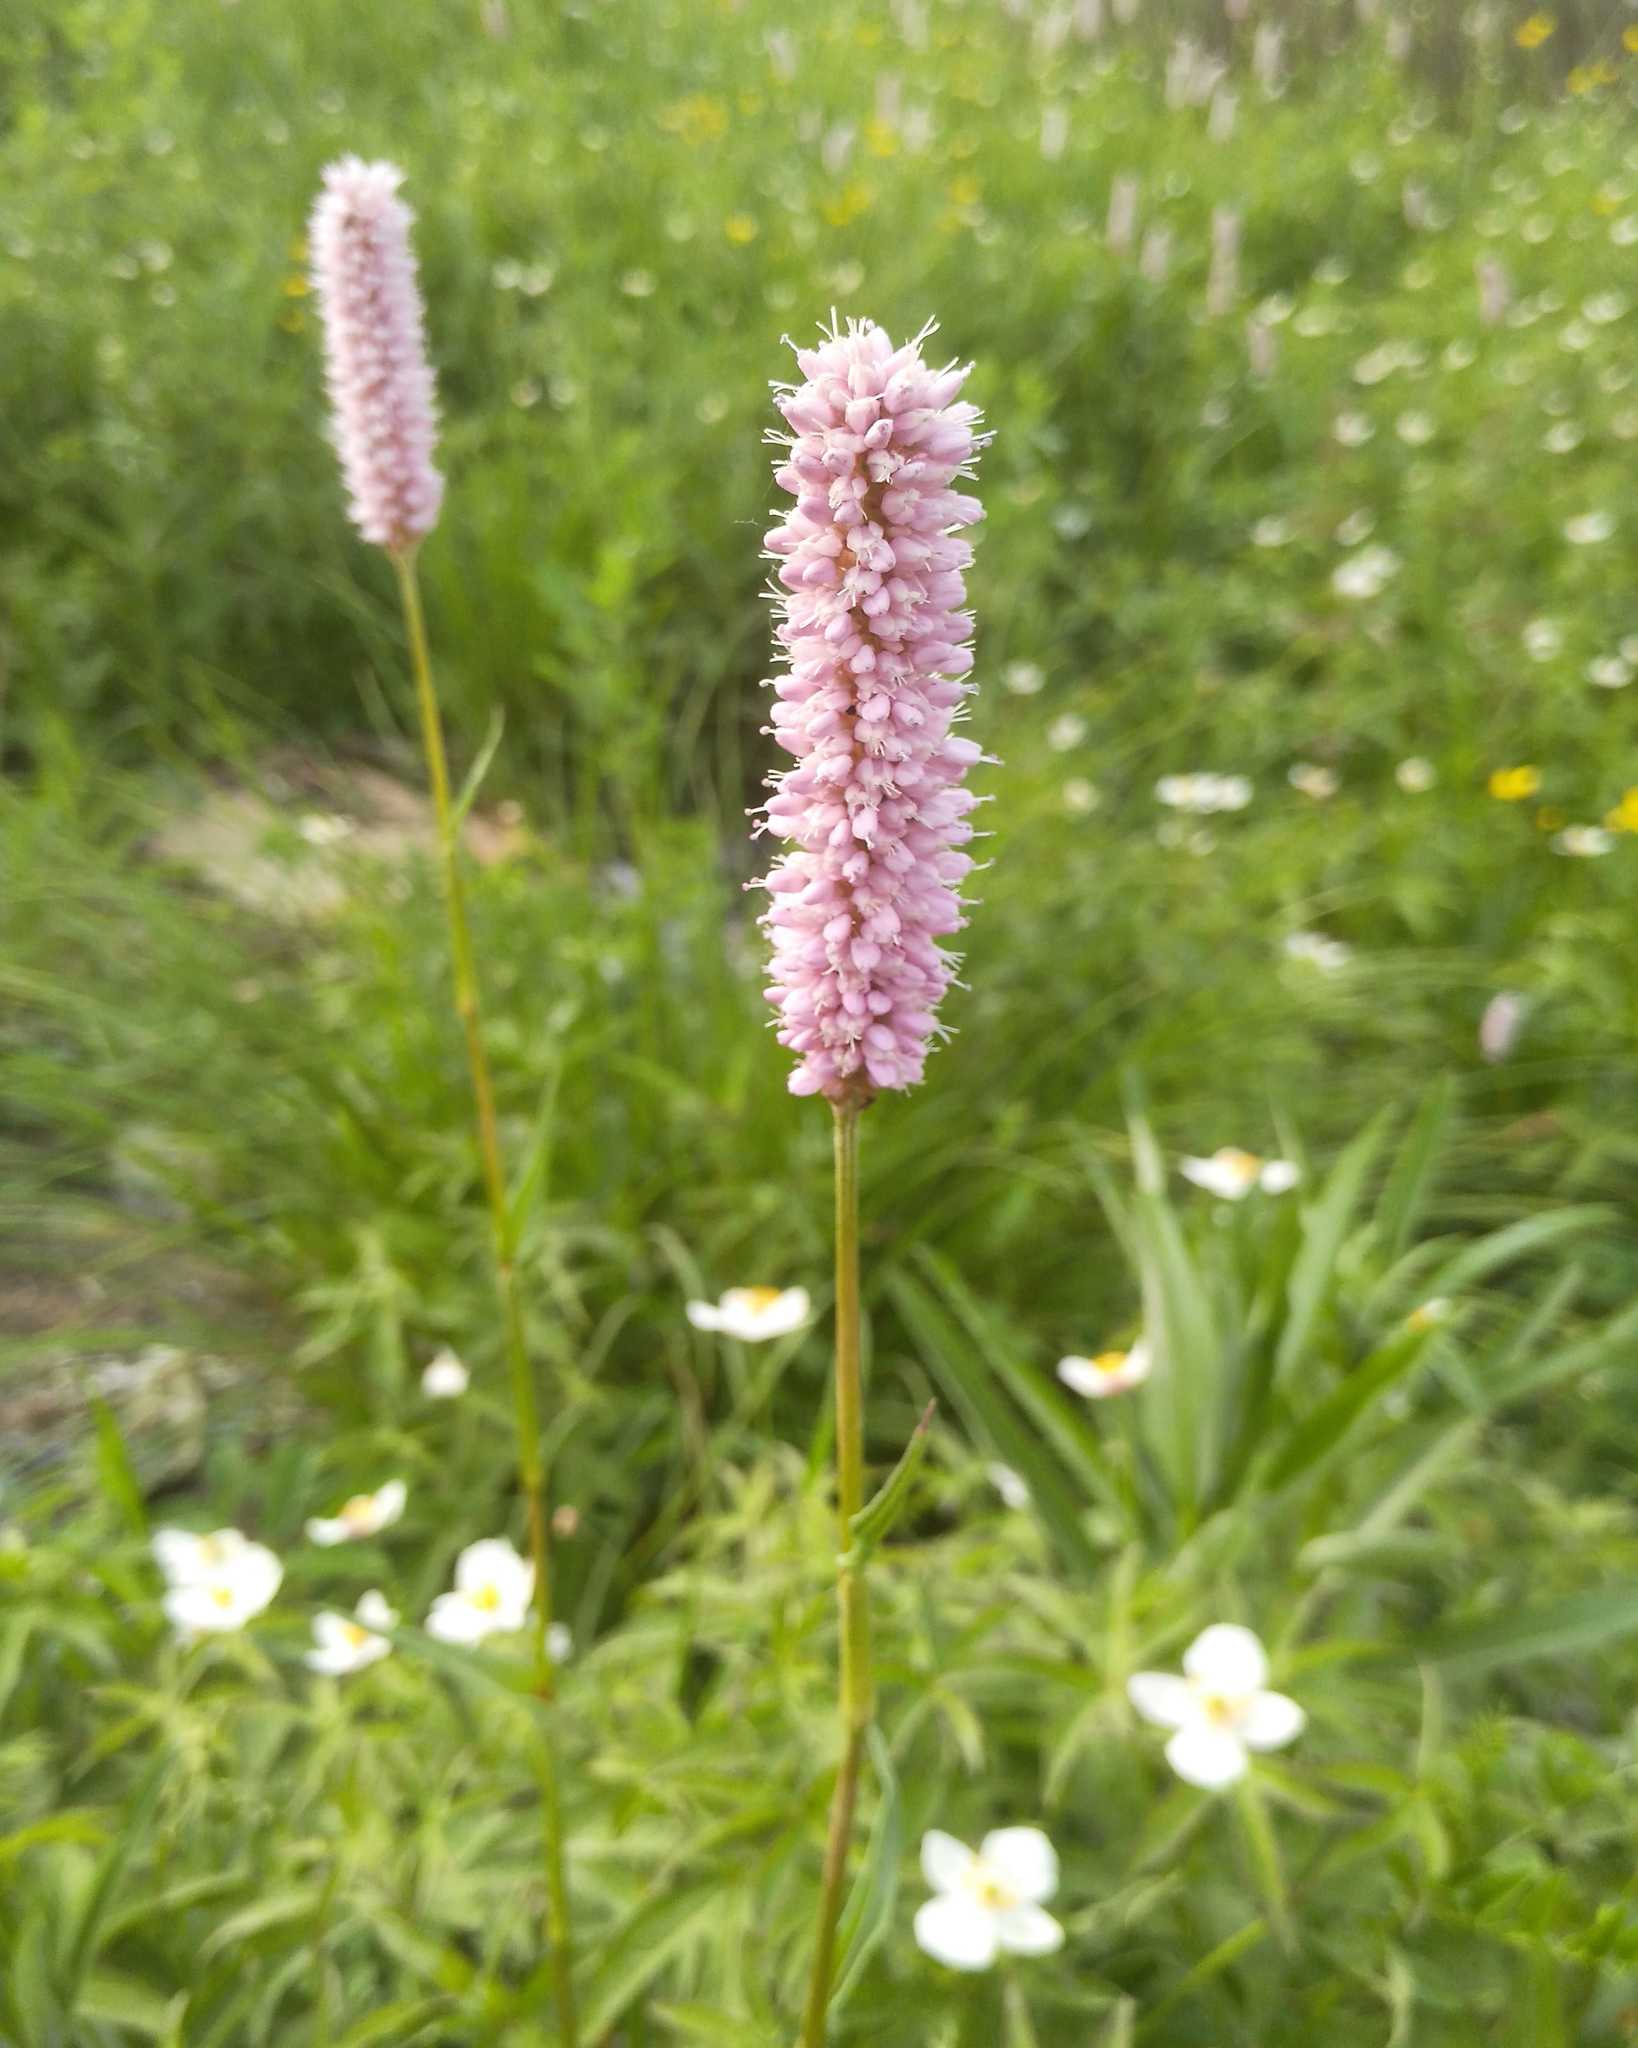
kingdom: Plantae
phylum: Tracheophyta
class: Magnoliopsida
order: Caryophyllales
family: Polygonaceae
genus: Bistorta
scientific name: Bistorta officinalis
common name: Common bistort
